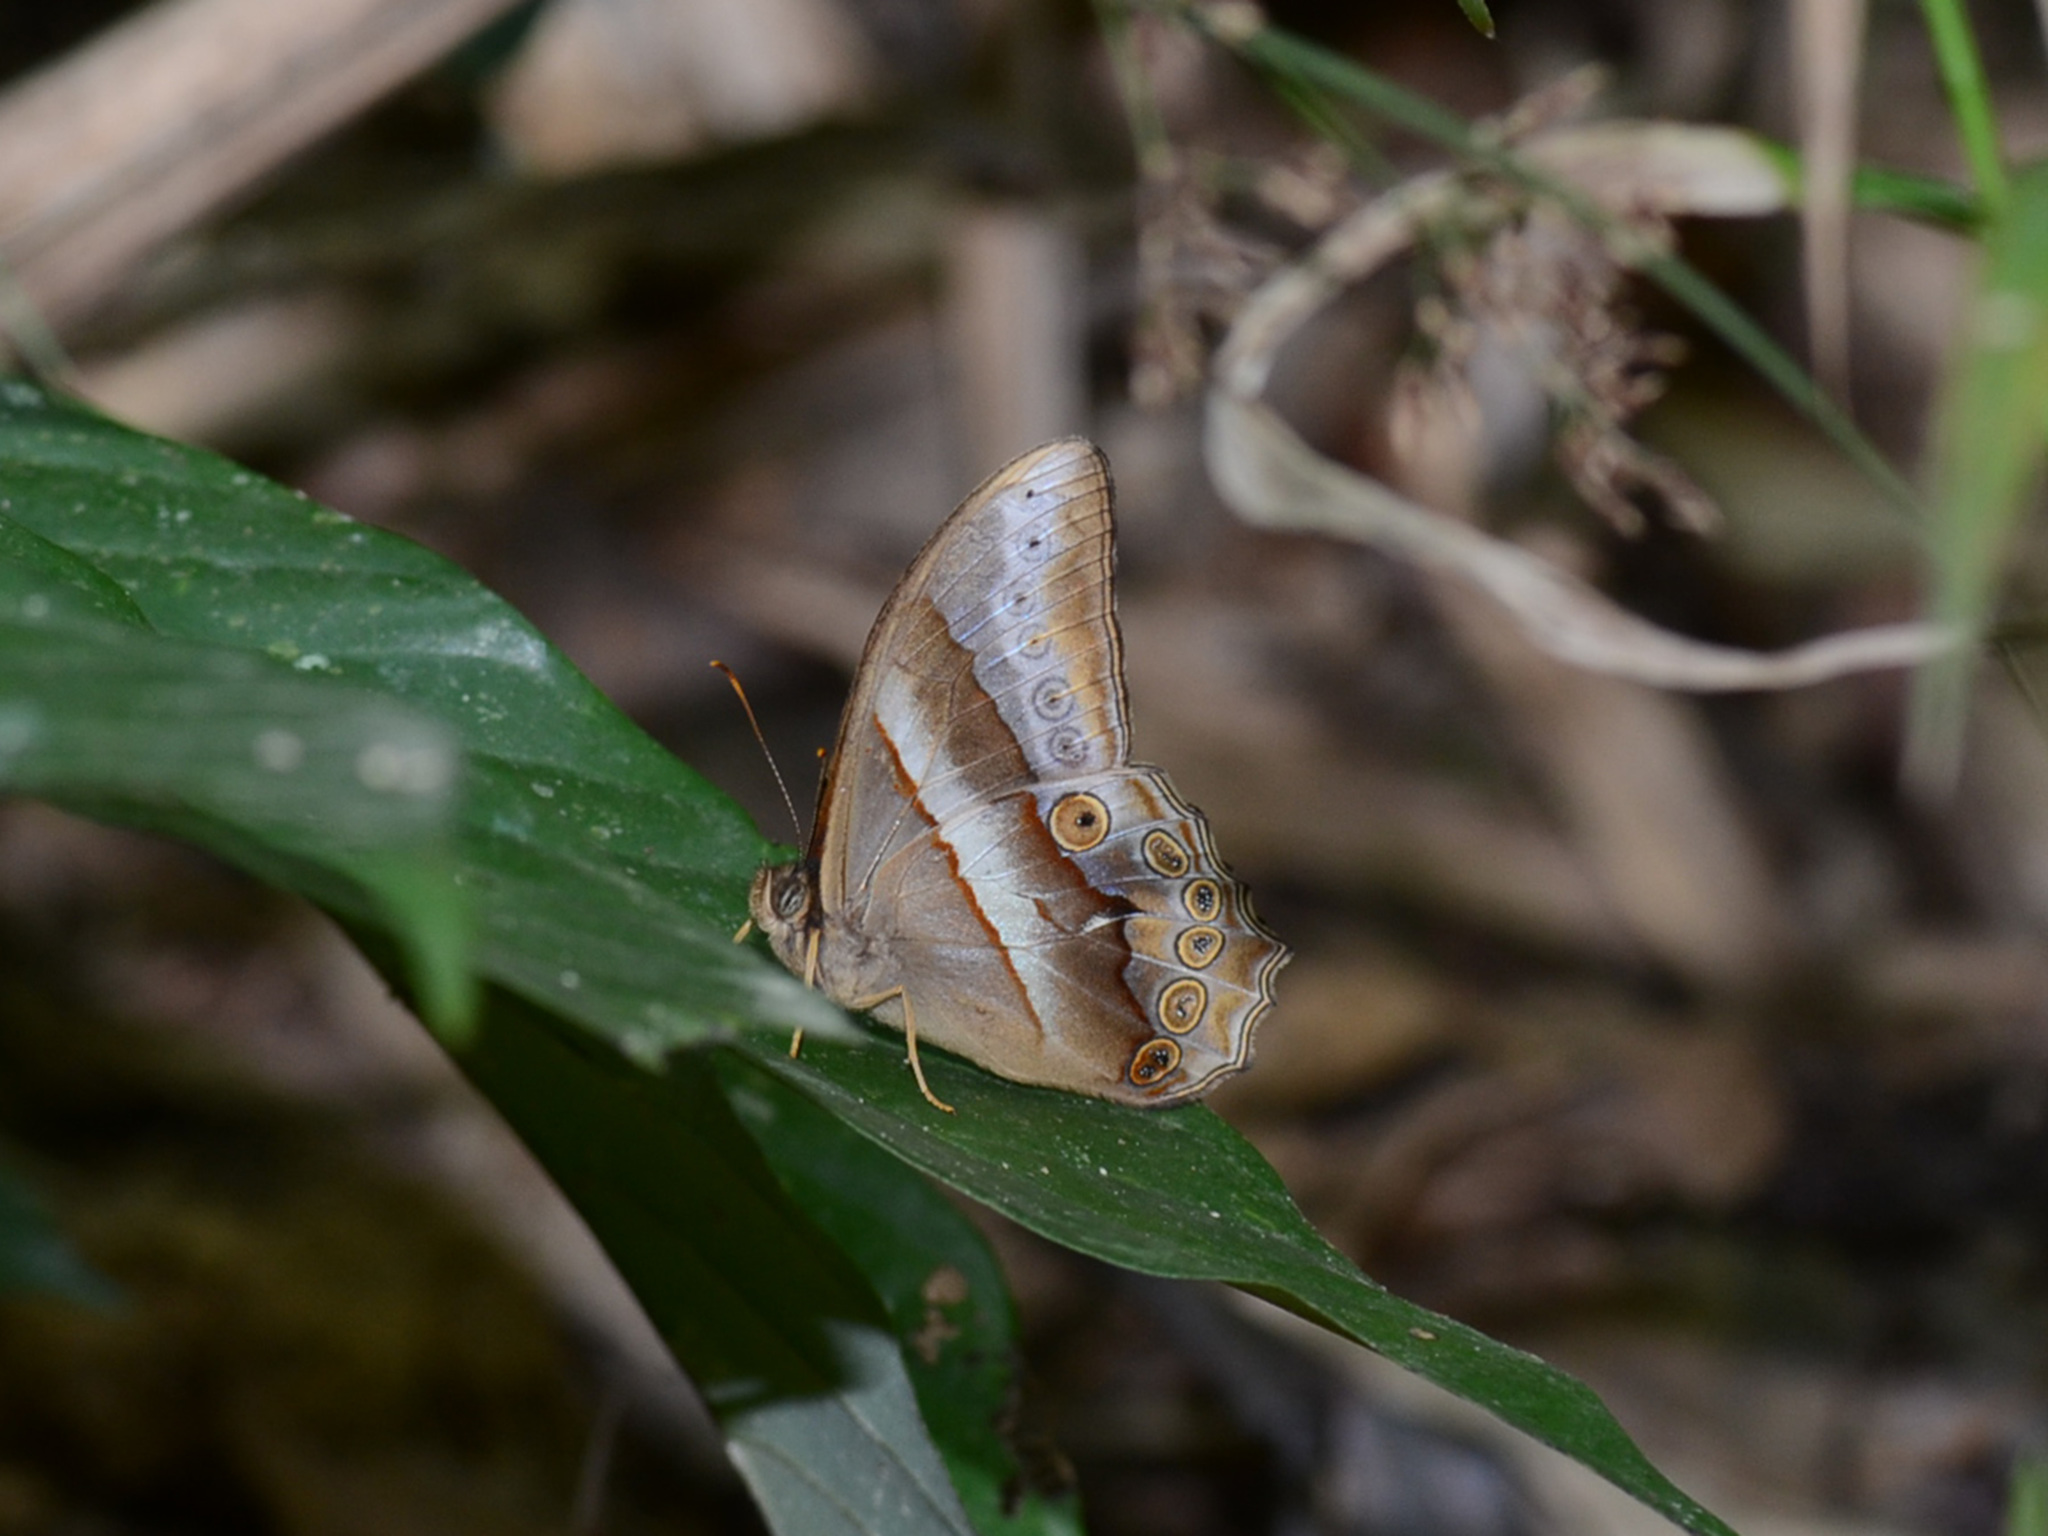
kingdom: Animalia
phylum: Arthropoda
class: Insecta
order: Lepidoptera
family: Nymphalidae
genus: Lethe
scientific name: Lethe mekara
